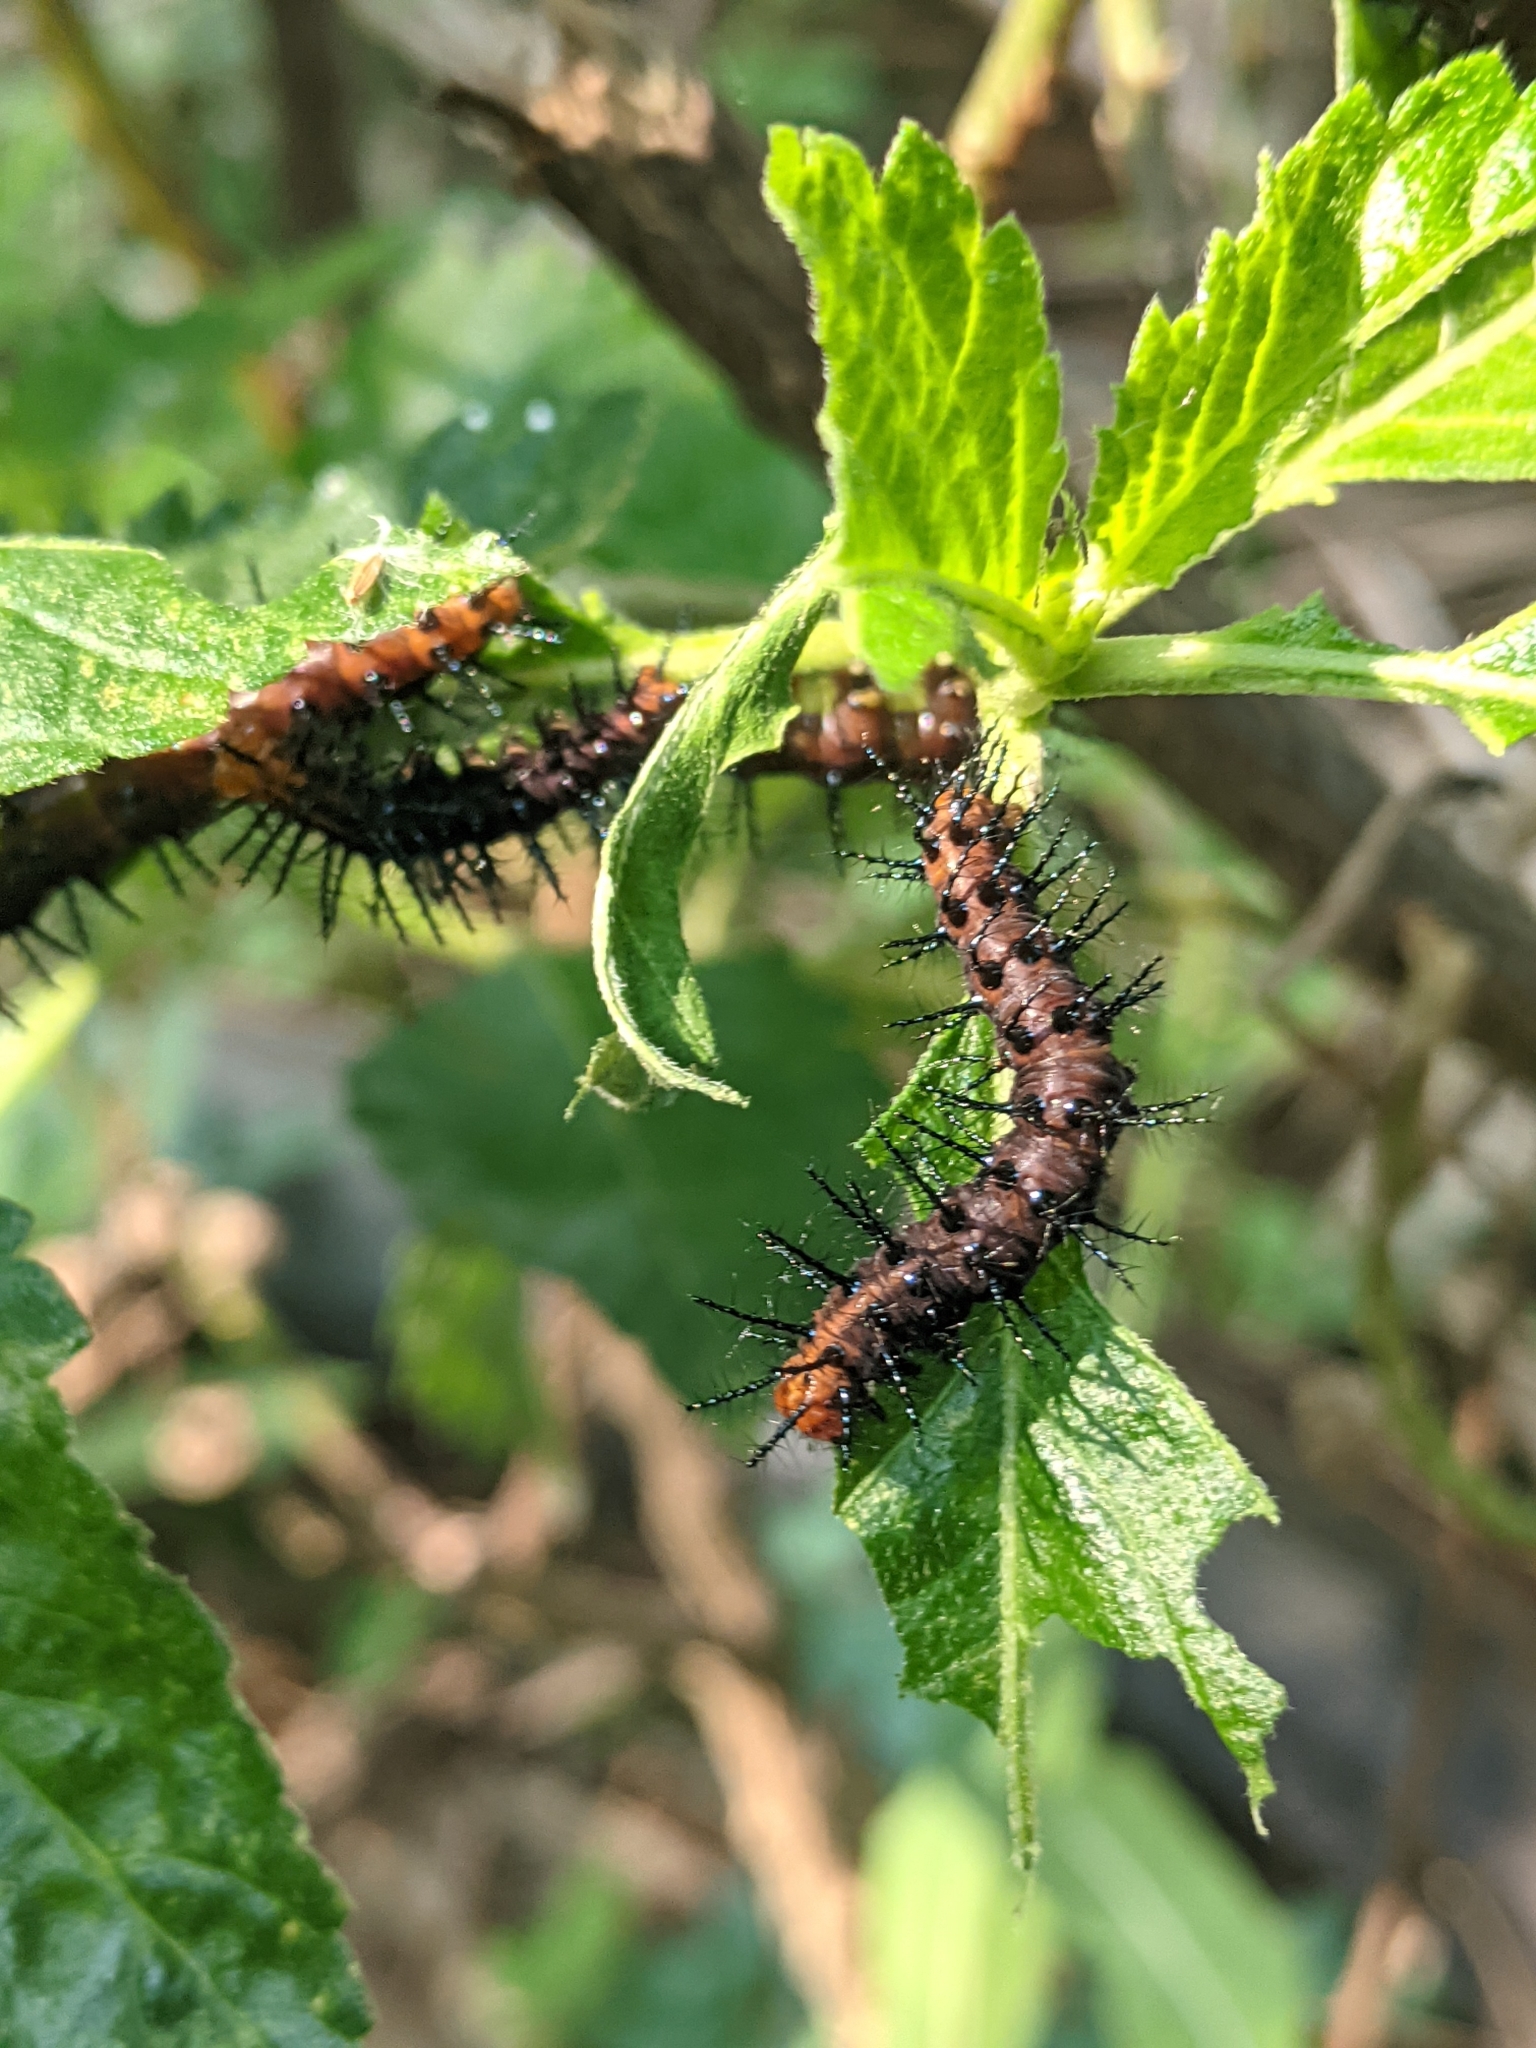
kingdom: Animalia
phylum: Arthropoda
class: Insecta
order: Lepidoptera
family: Nymphalidae
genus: Acraea
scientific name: Acraea terpsicore
